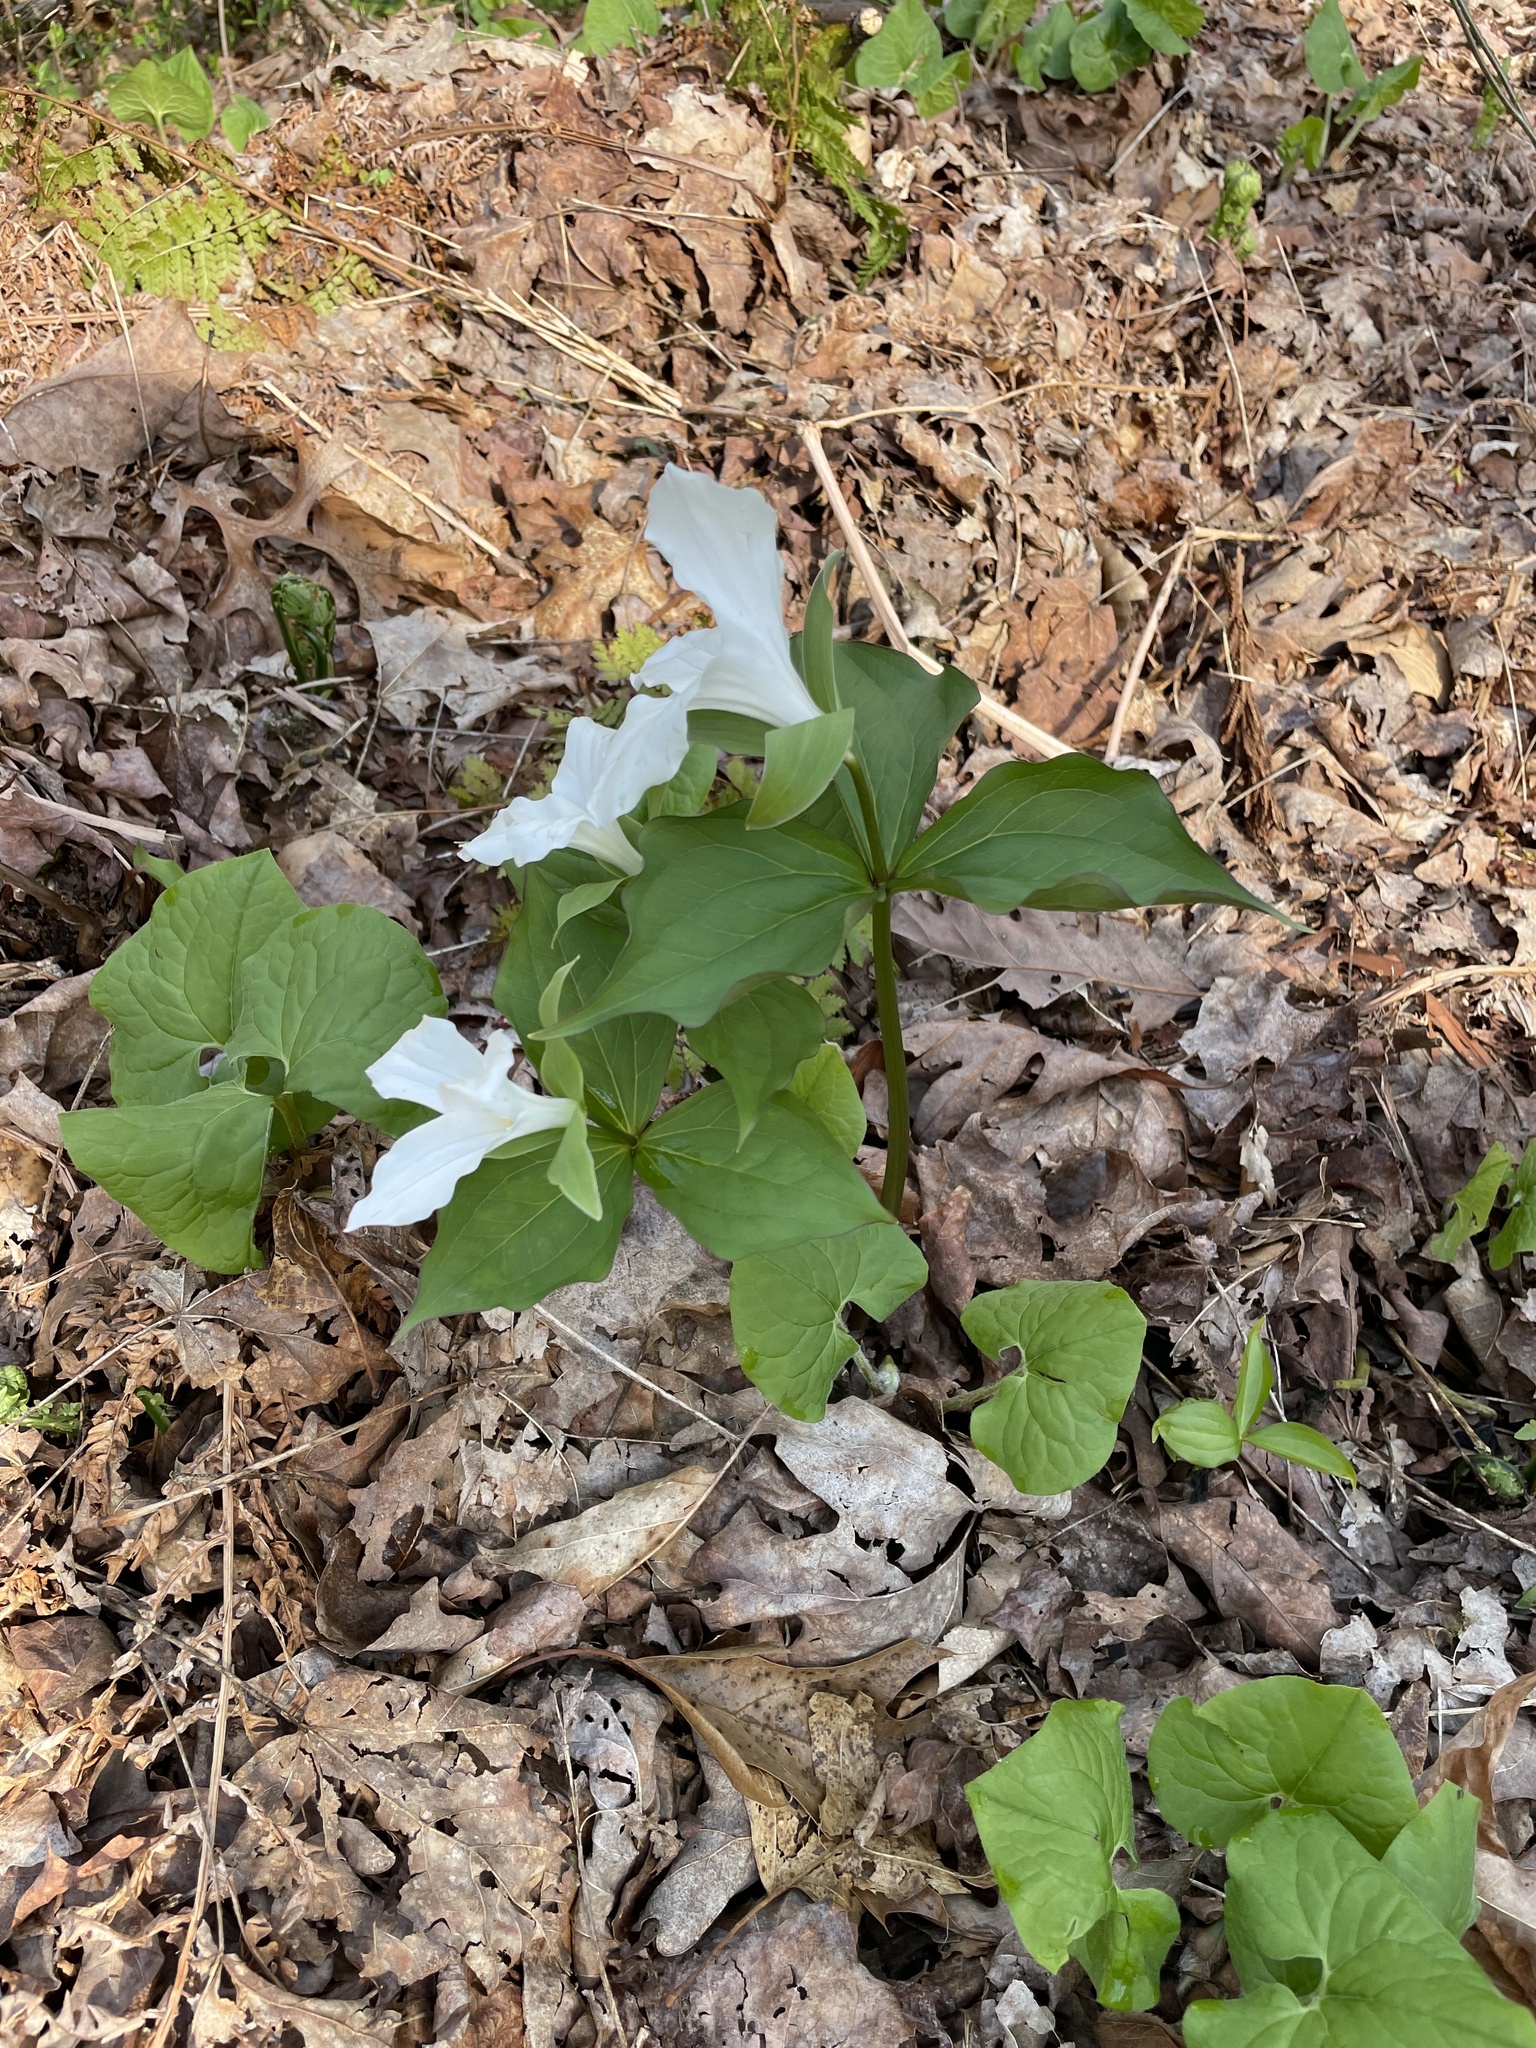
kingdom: Plantae
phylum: Tracheophyta
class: Liliopsida
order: Liliales
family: Melanthiaceae
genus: Trillium
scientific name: Trillium grandiflorum
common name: Great white trillium
